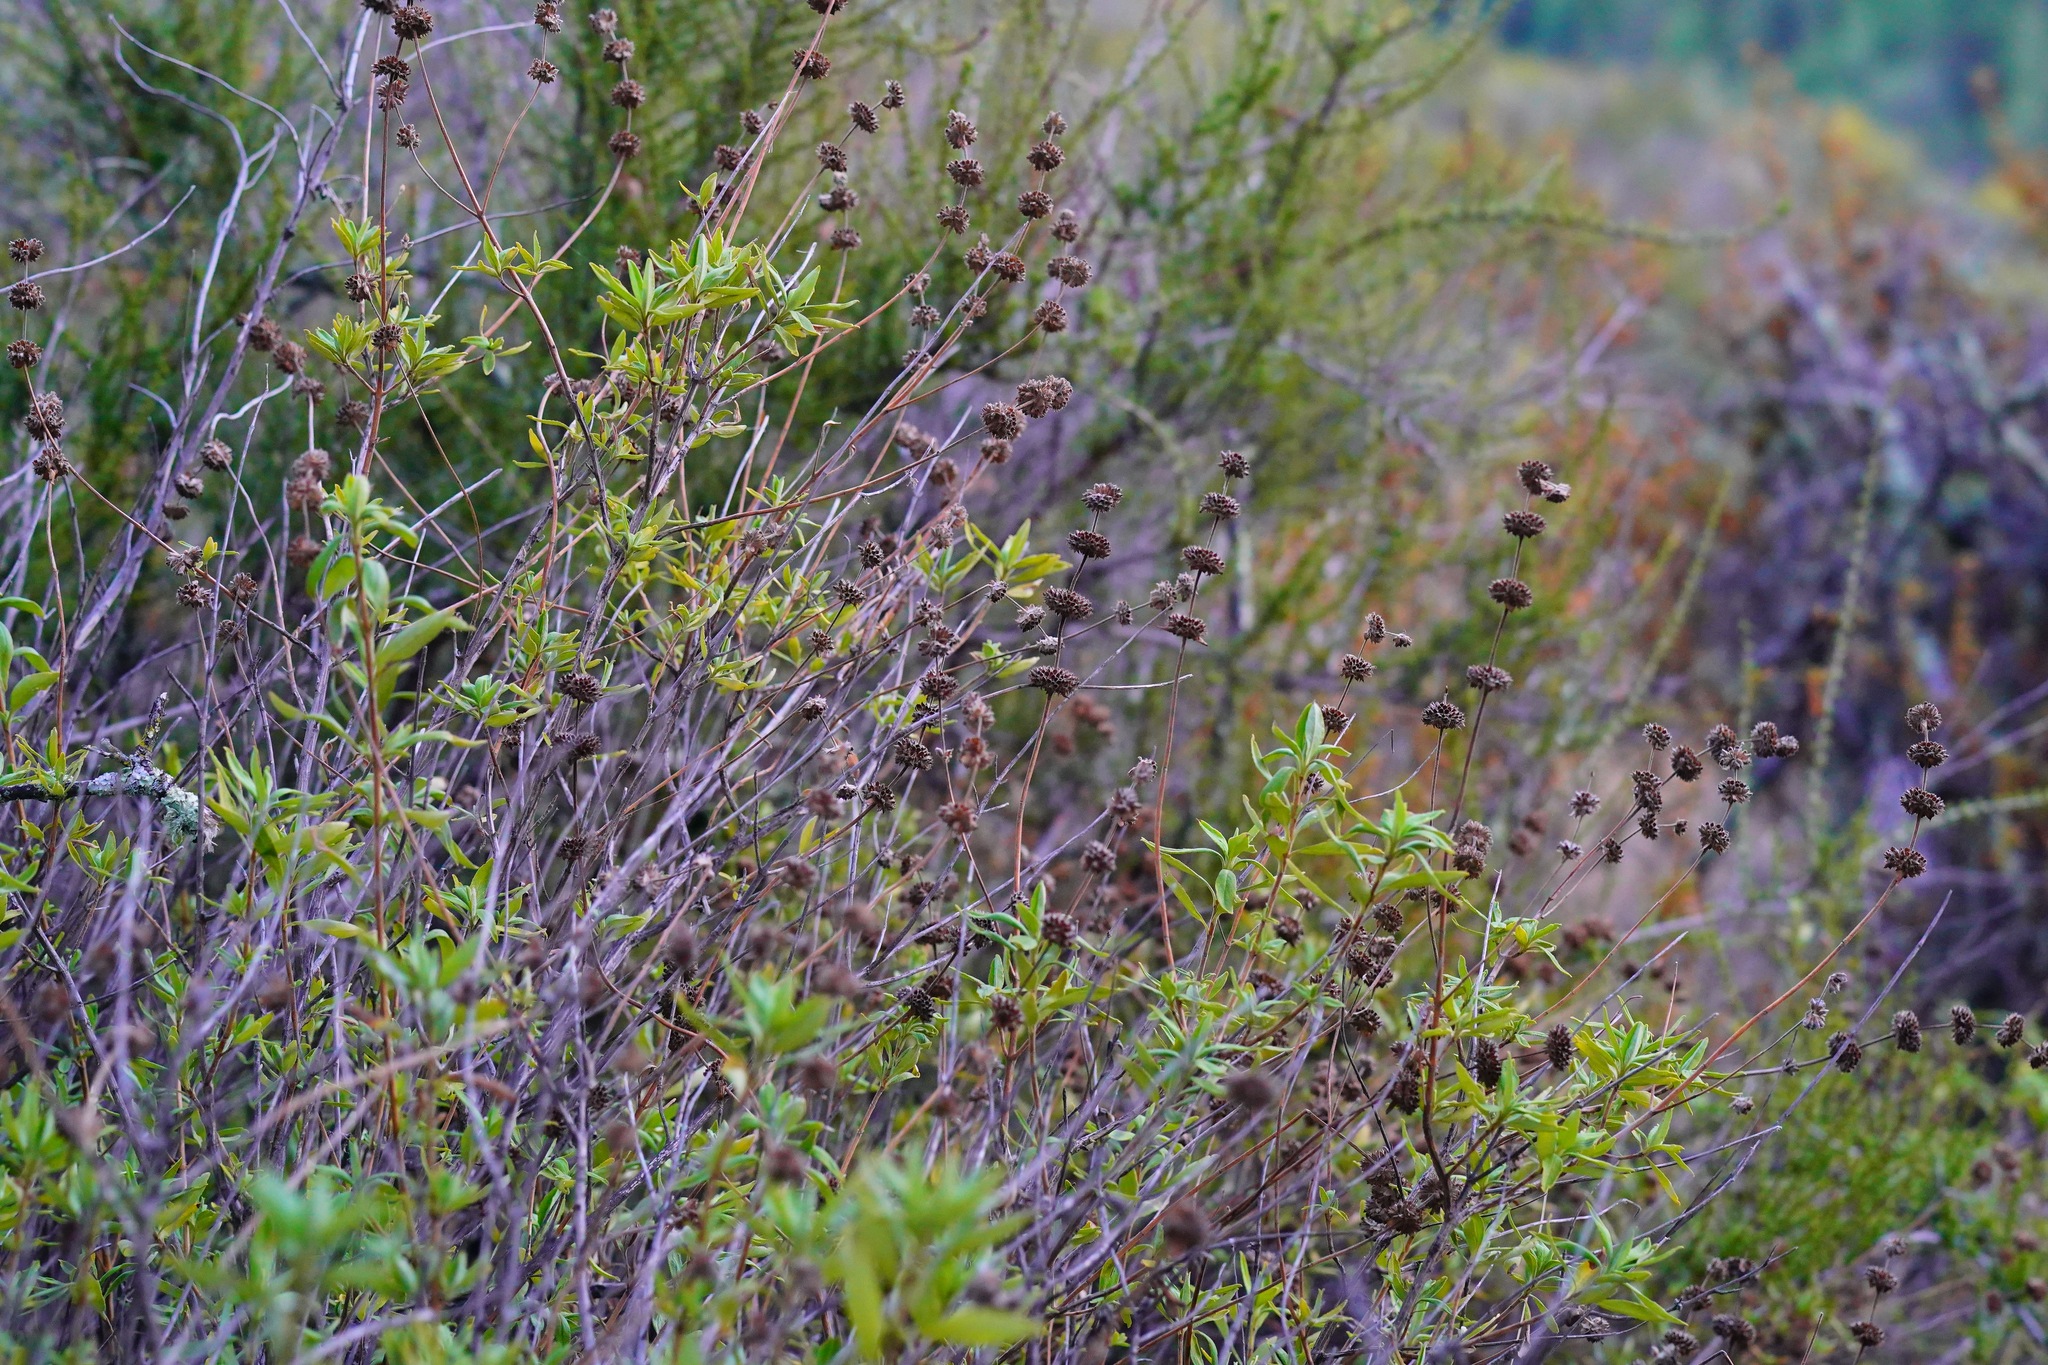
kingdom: Plantae
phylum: Tracheophyta
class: Magnoliopsida
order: Lamiales
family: Lamiaceae
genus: Salvia
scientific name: Salvia mellifera
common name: Black sage
